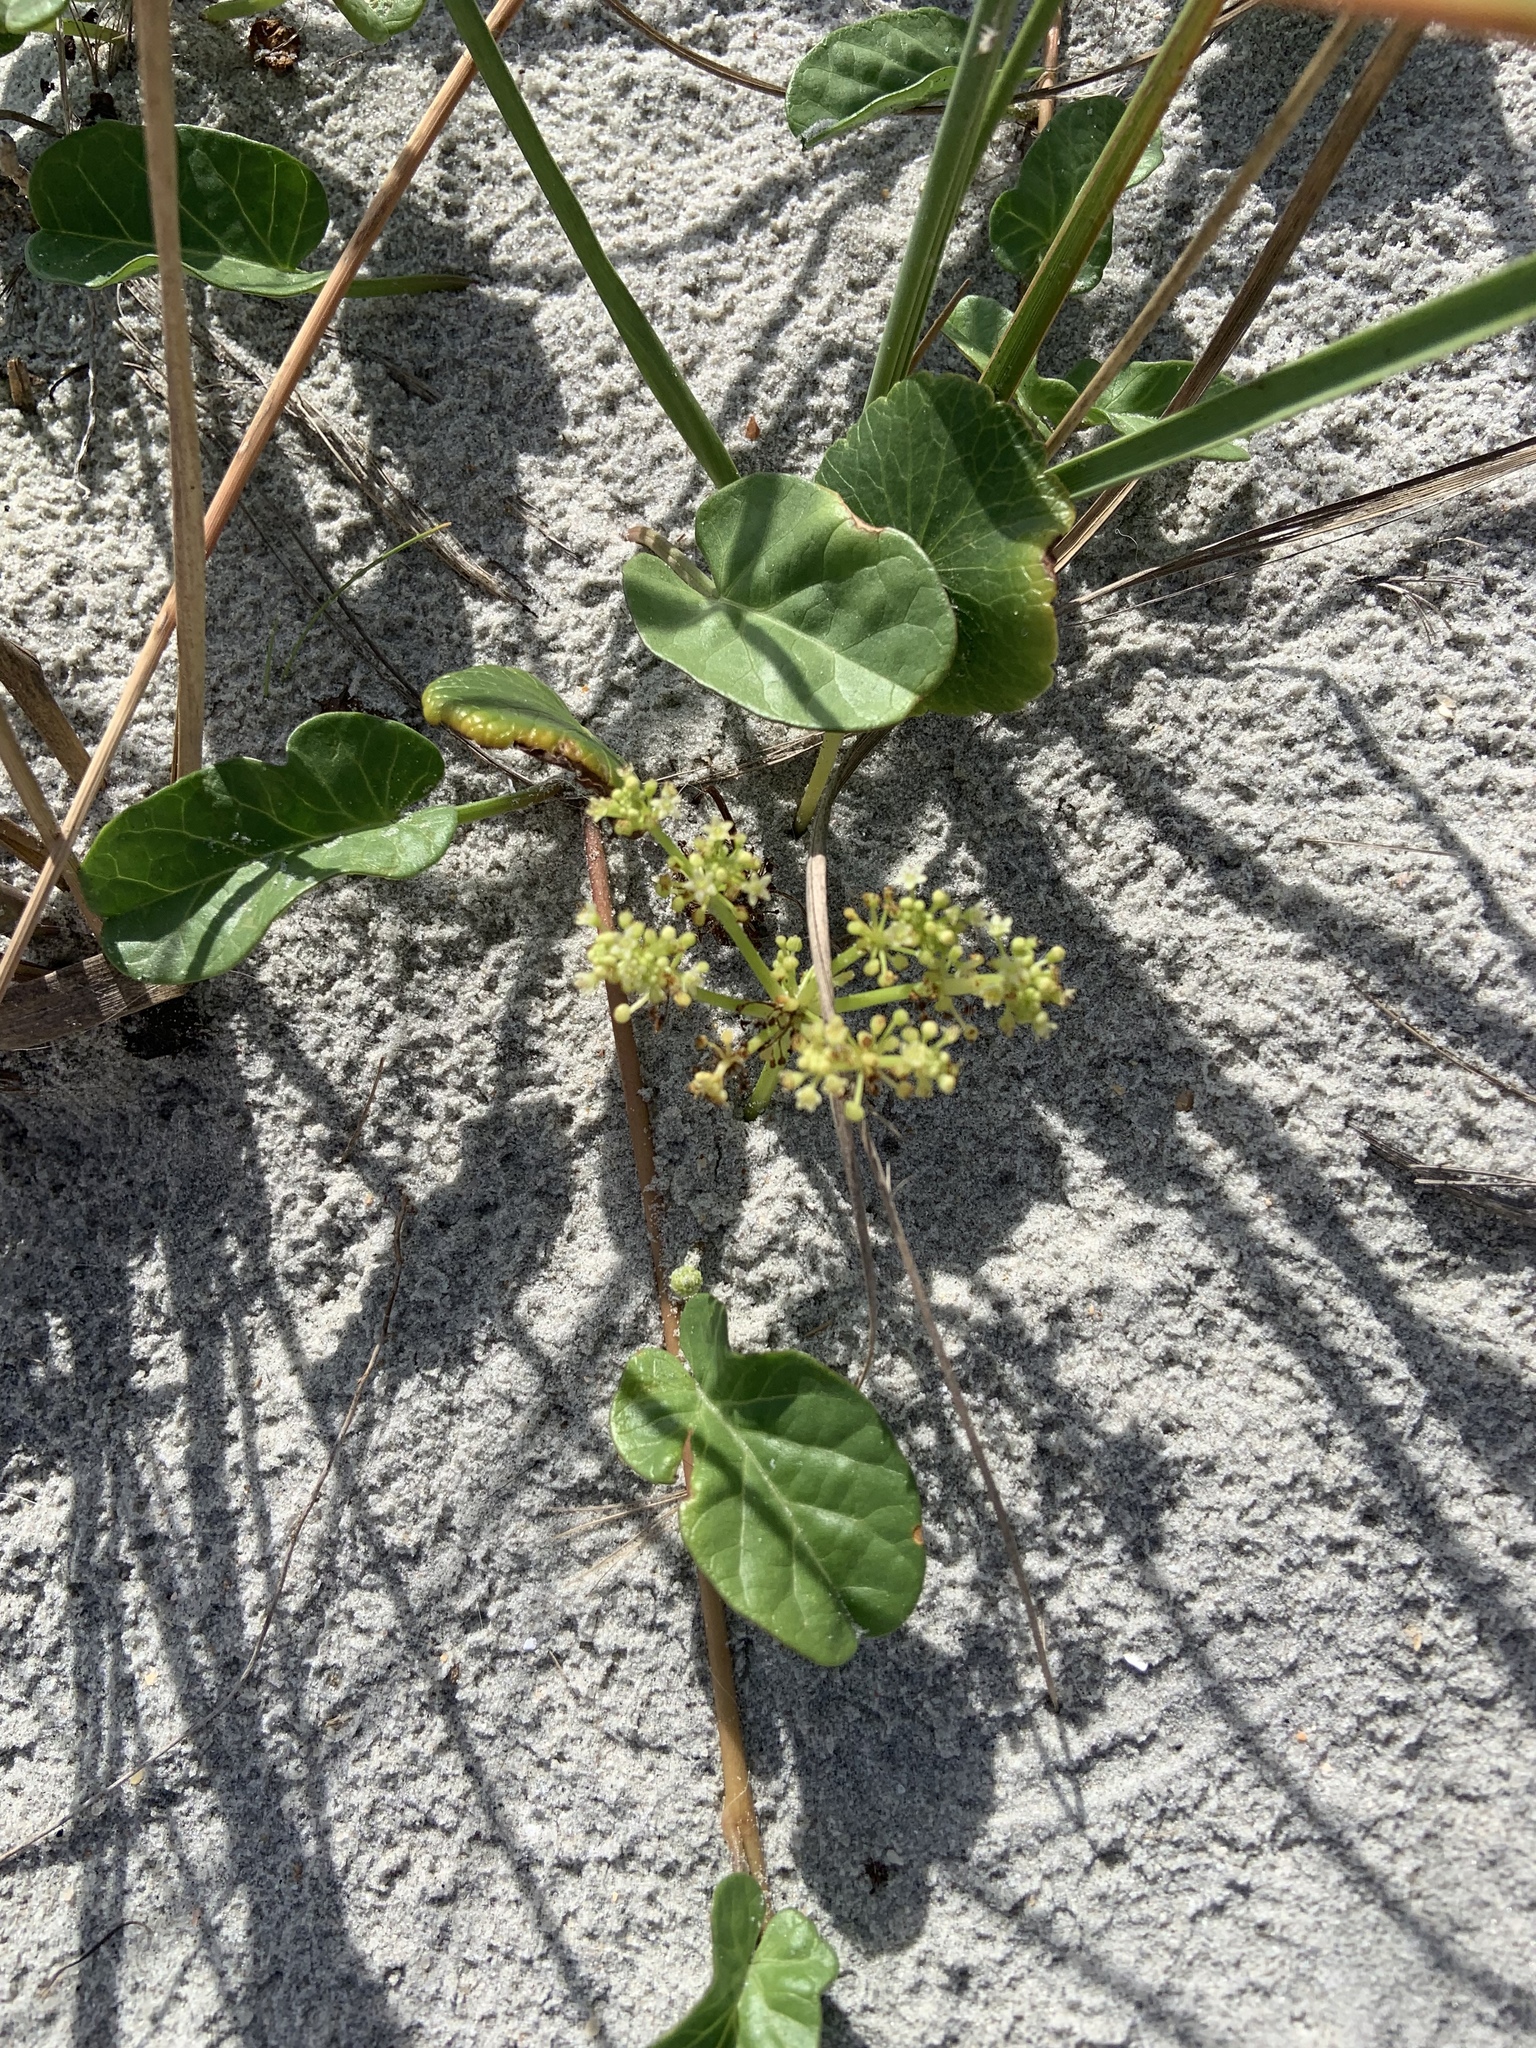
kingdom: Plantae
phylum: Tracheophyta
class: Magnoliopsida
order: Apiales
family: Araliaceae
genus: Hydrocotyle
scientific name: Hydrocotyle bonariensis
